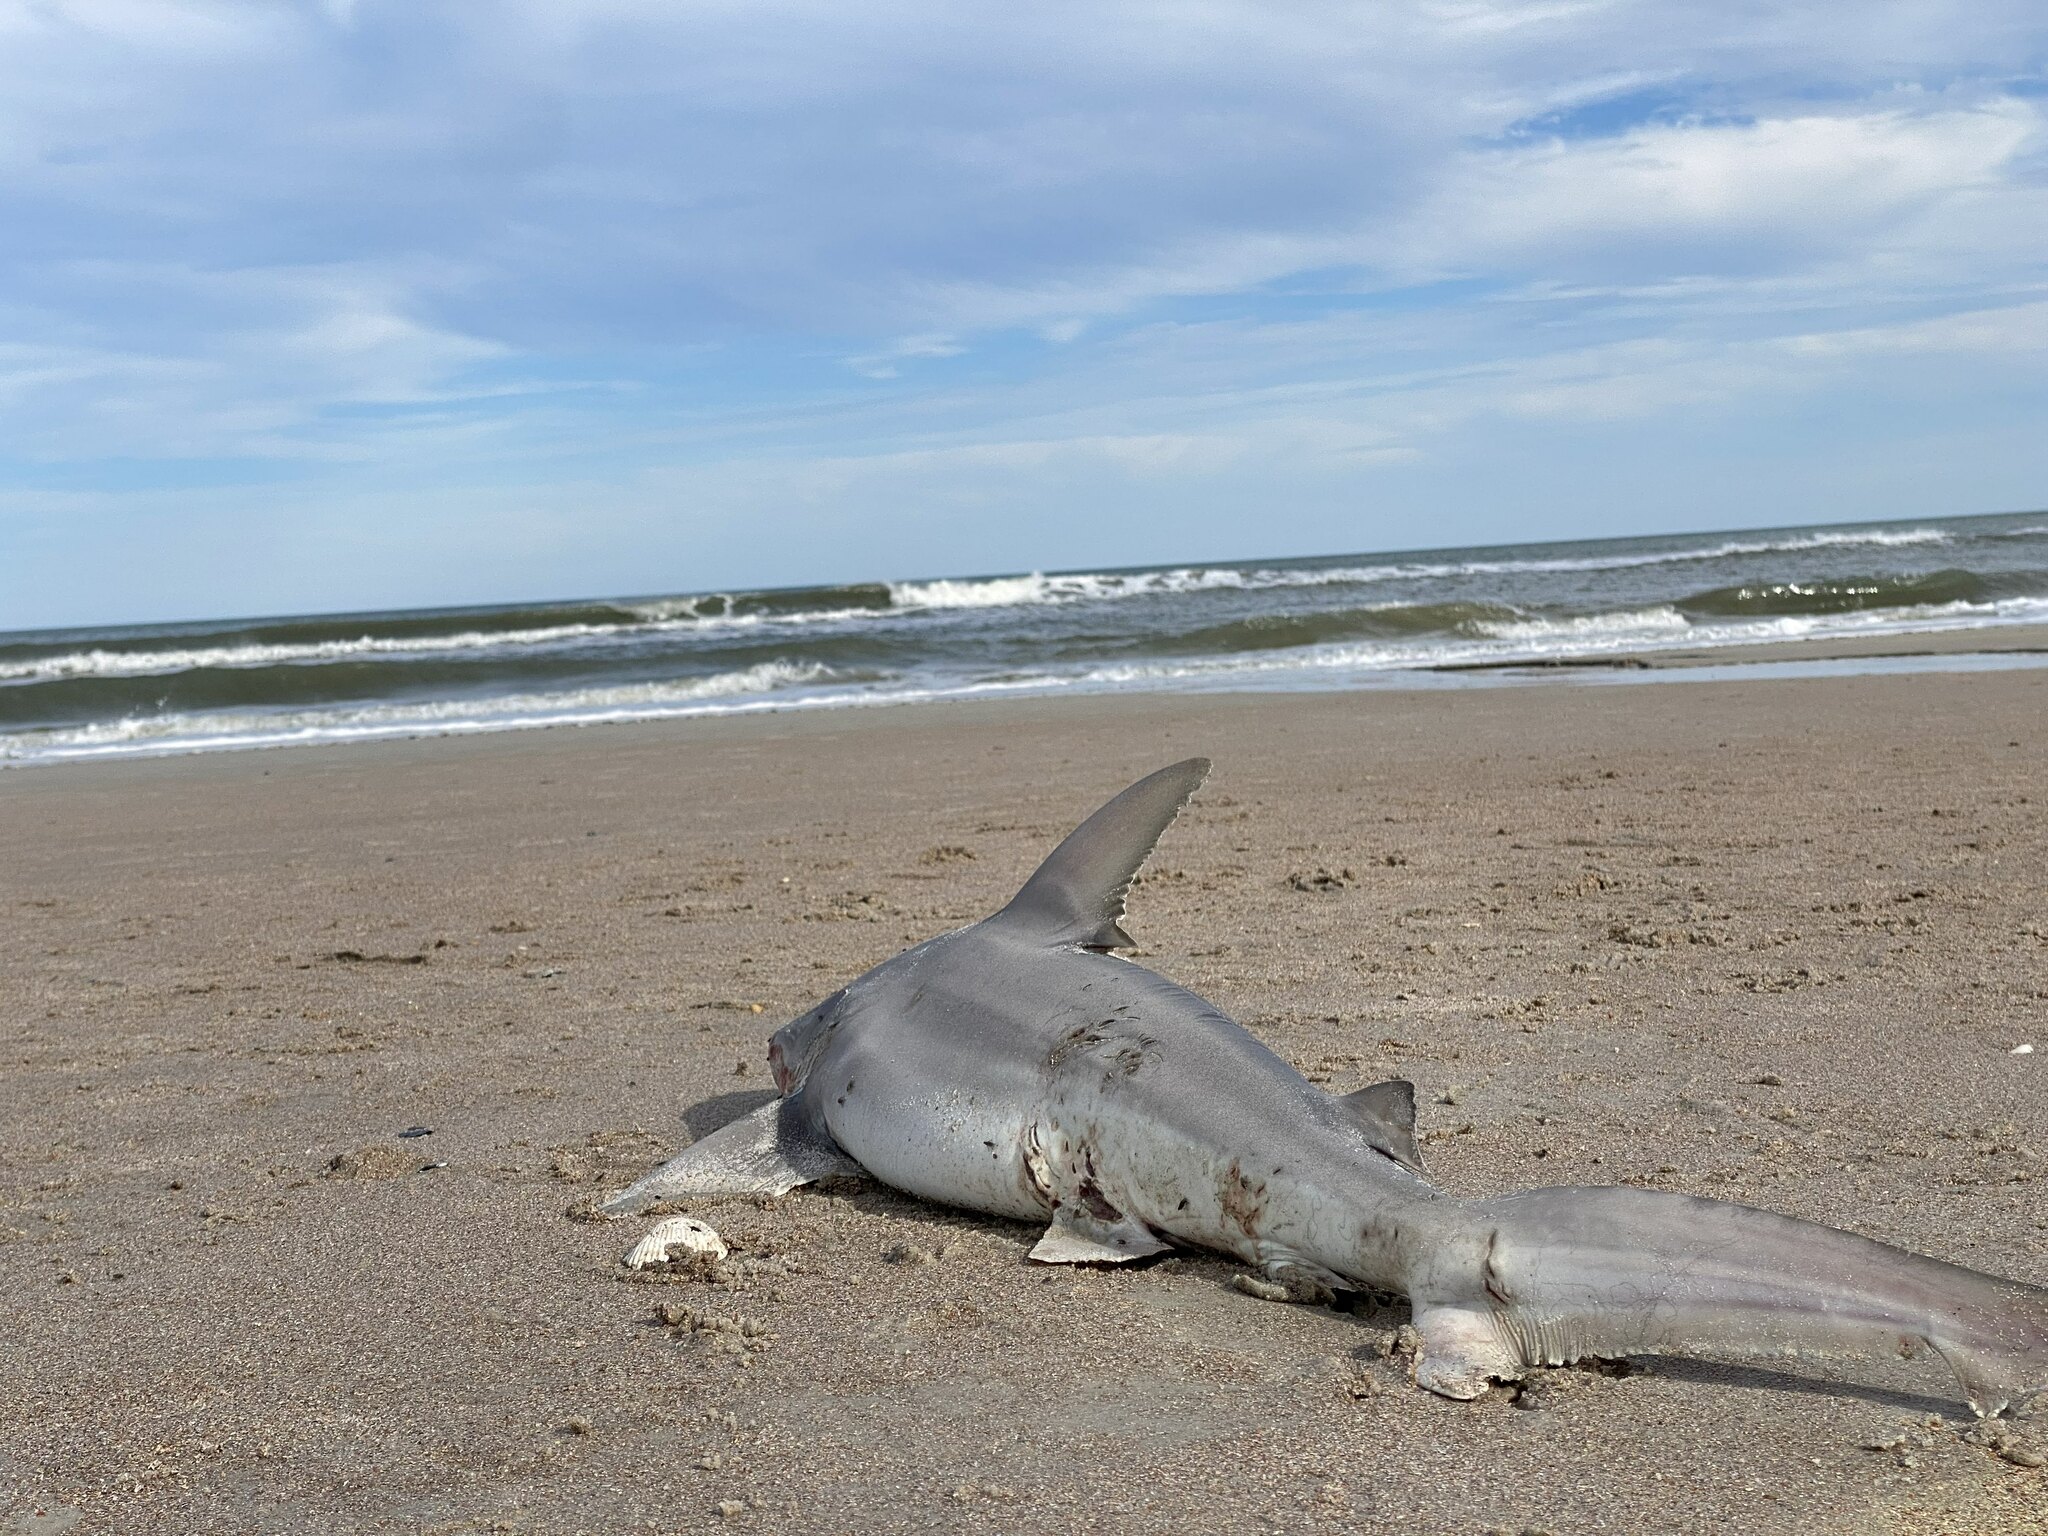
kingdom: Animalia
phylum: Chordata
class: Elasmobranchii
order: Carcharhiniformes
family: Carcharhinidae
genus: Carcharhinus
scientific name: Carcharhinus plumbeus
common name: Sandbar shark
